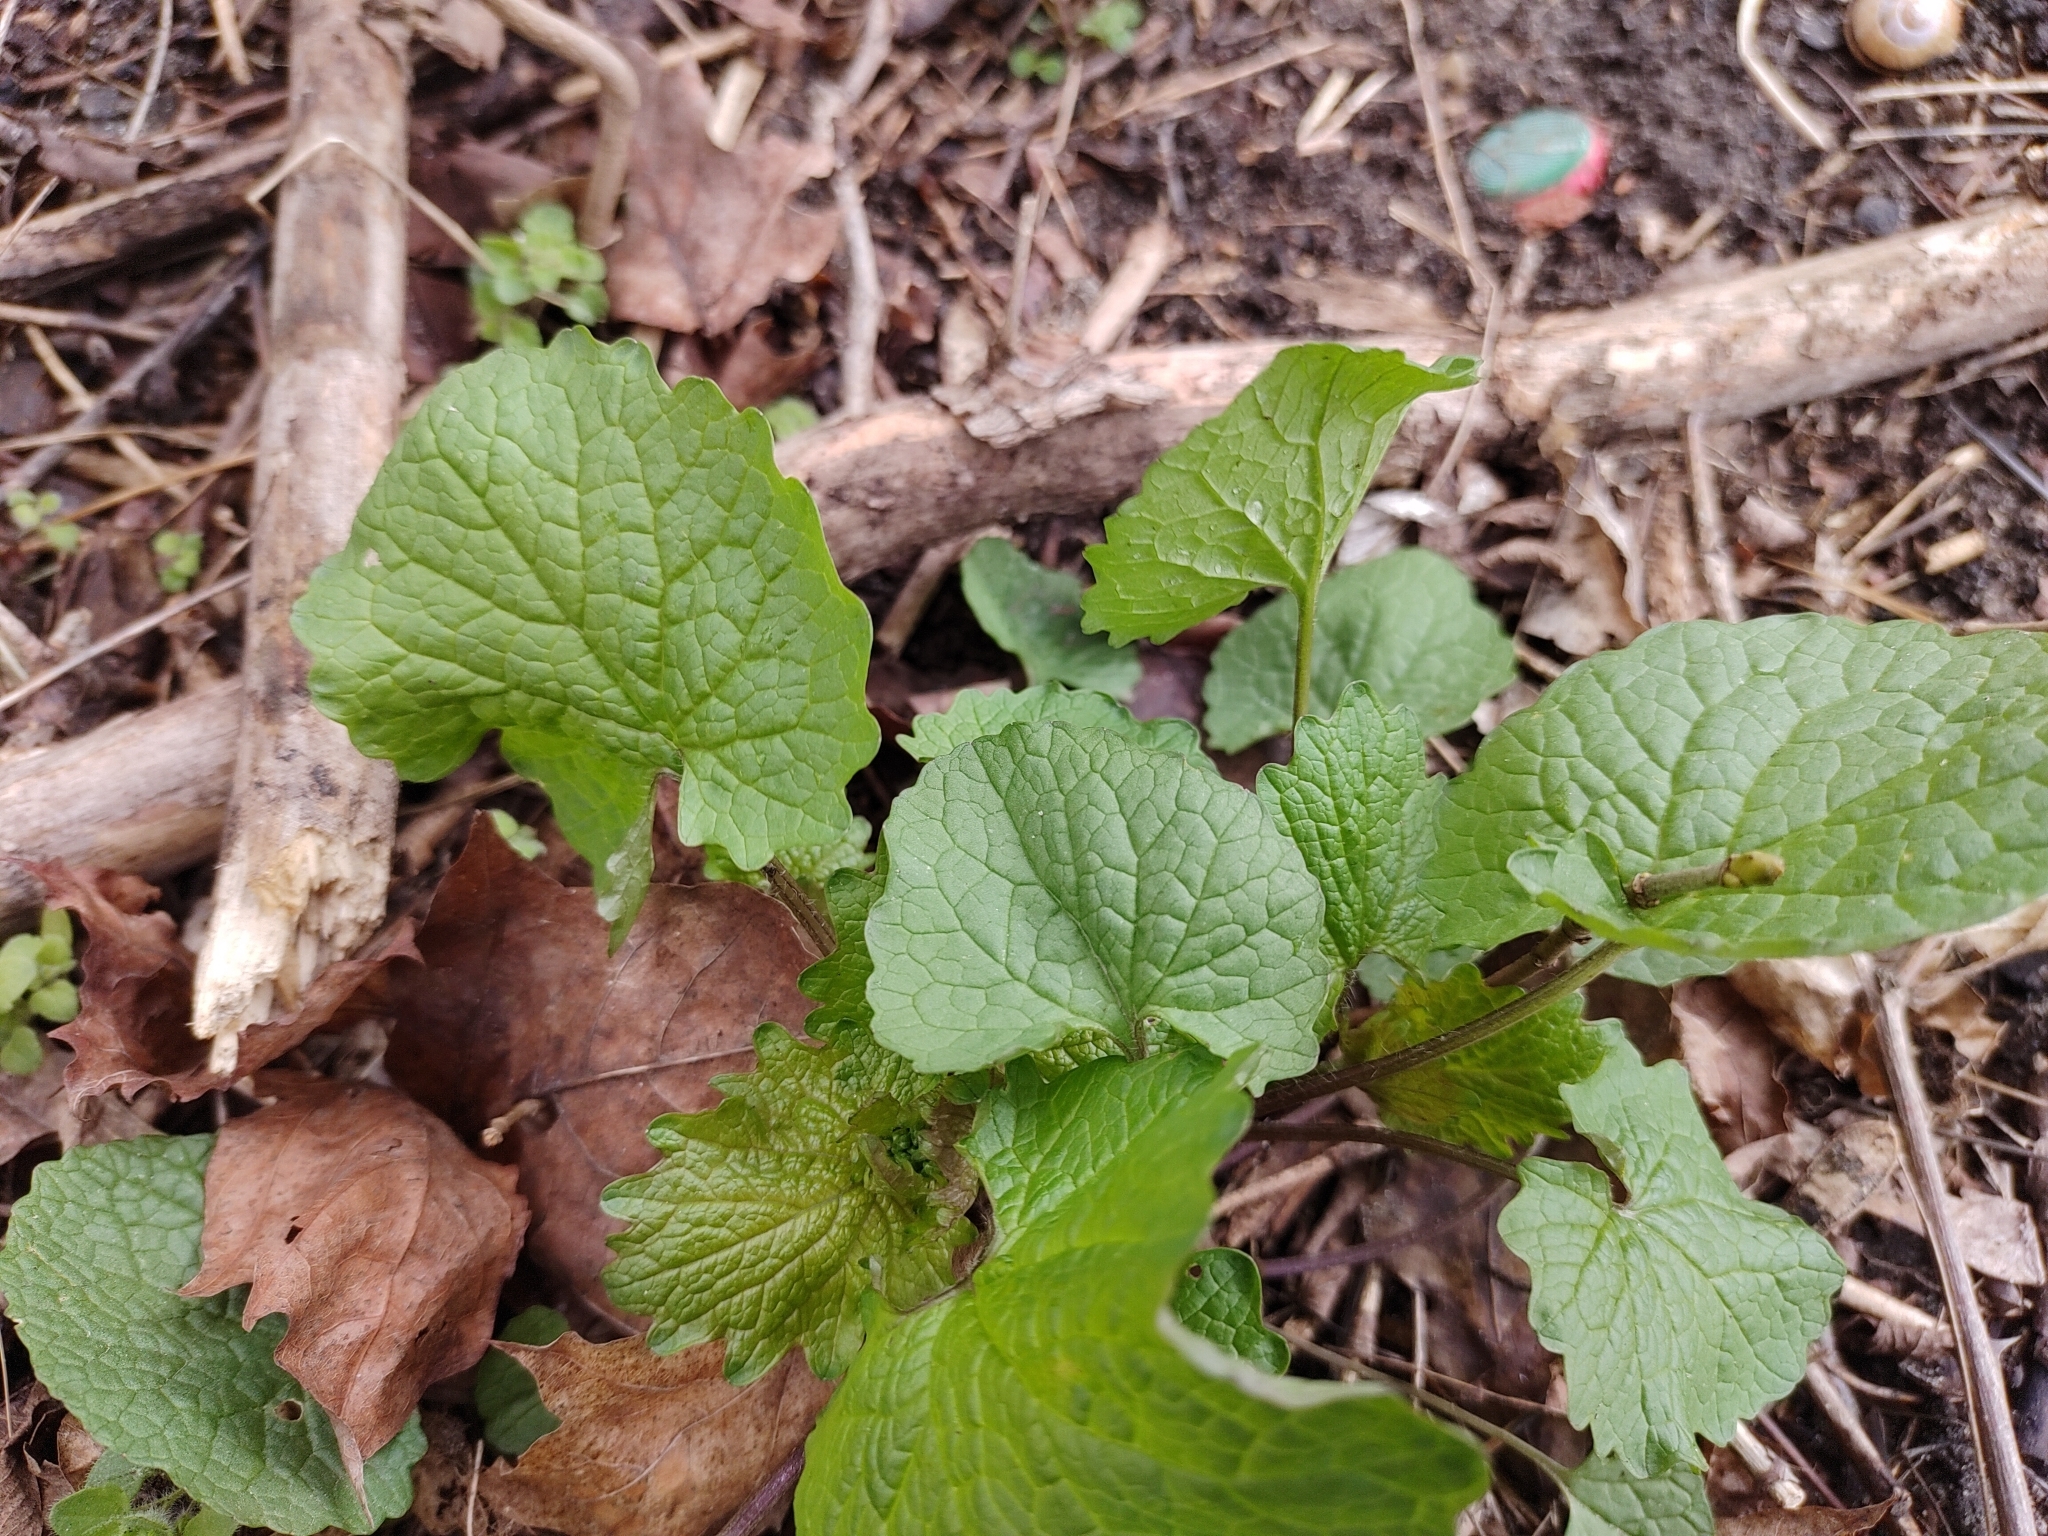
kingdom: Plantae
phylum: Tracheophyta
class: Magnoliopsida
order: Brassicales
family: Brassicaceae
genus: Alliaria
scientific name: Alliaria petiolata
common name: Garlic mustard
